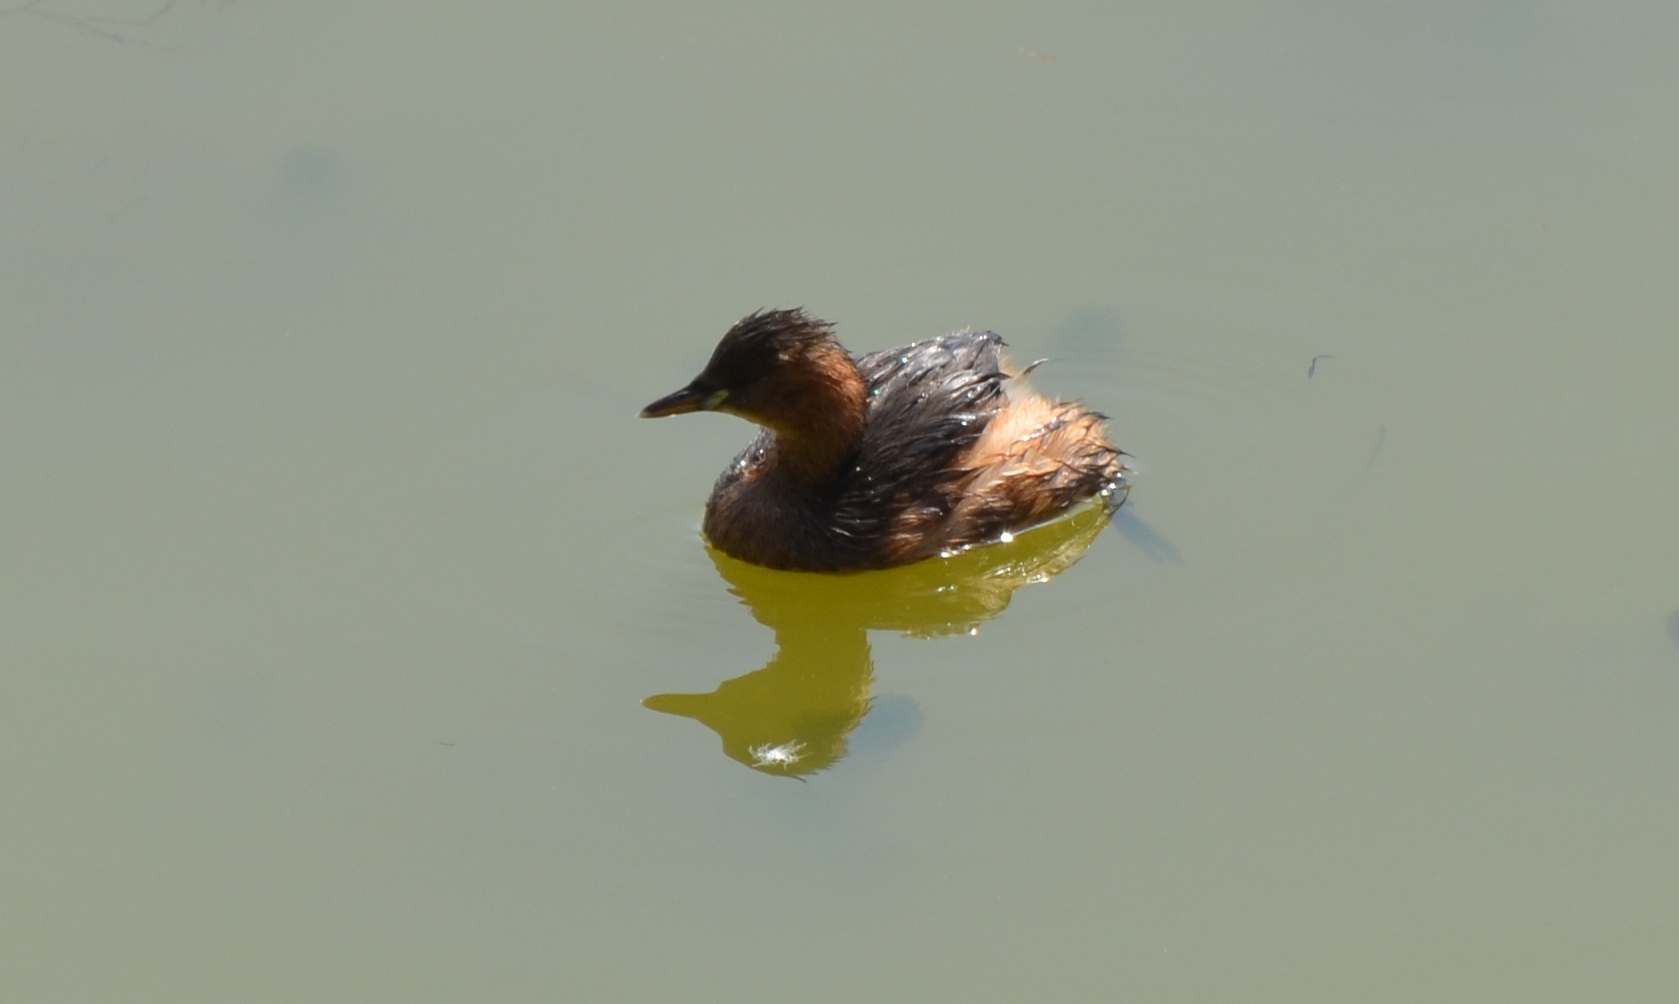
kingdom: Animalia
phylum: Chordata
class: Aves
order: Podicipediformes
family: Podicipedidae
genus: Tachybaptus
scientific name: Tachybaptus ruficollis
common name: Little grebe
